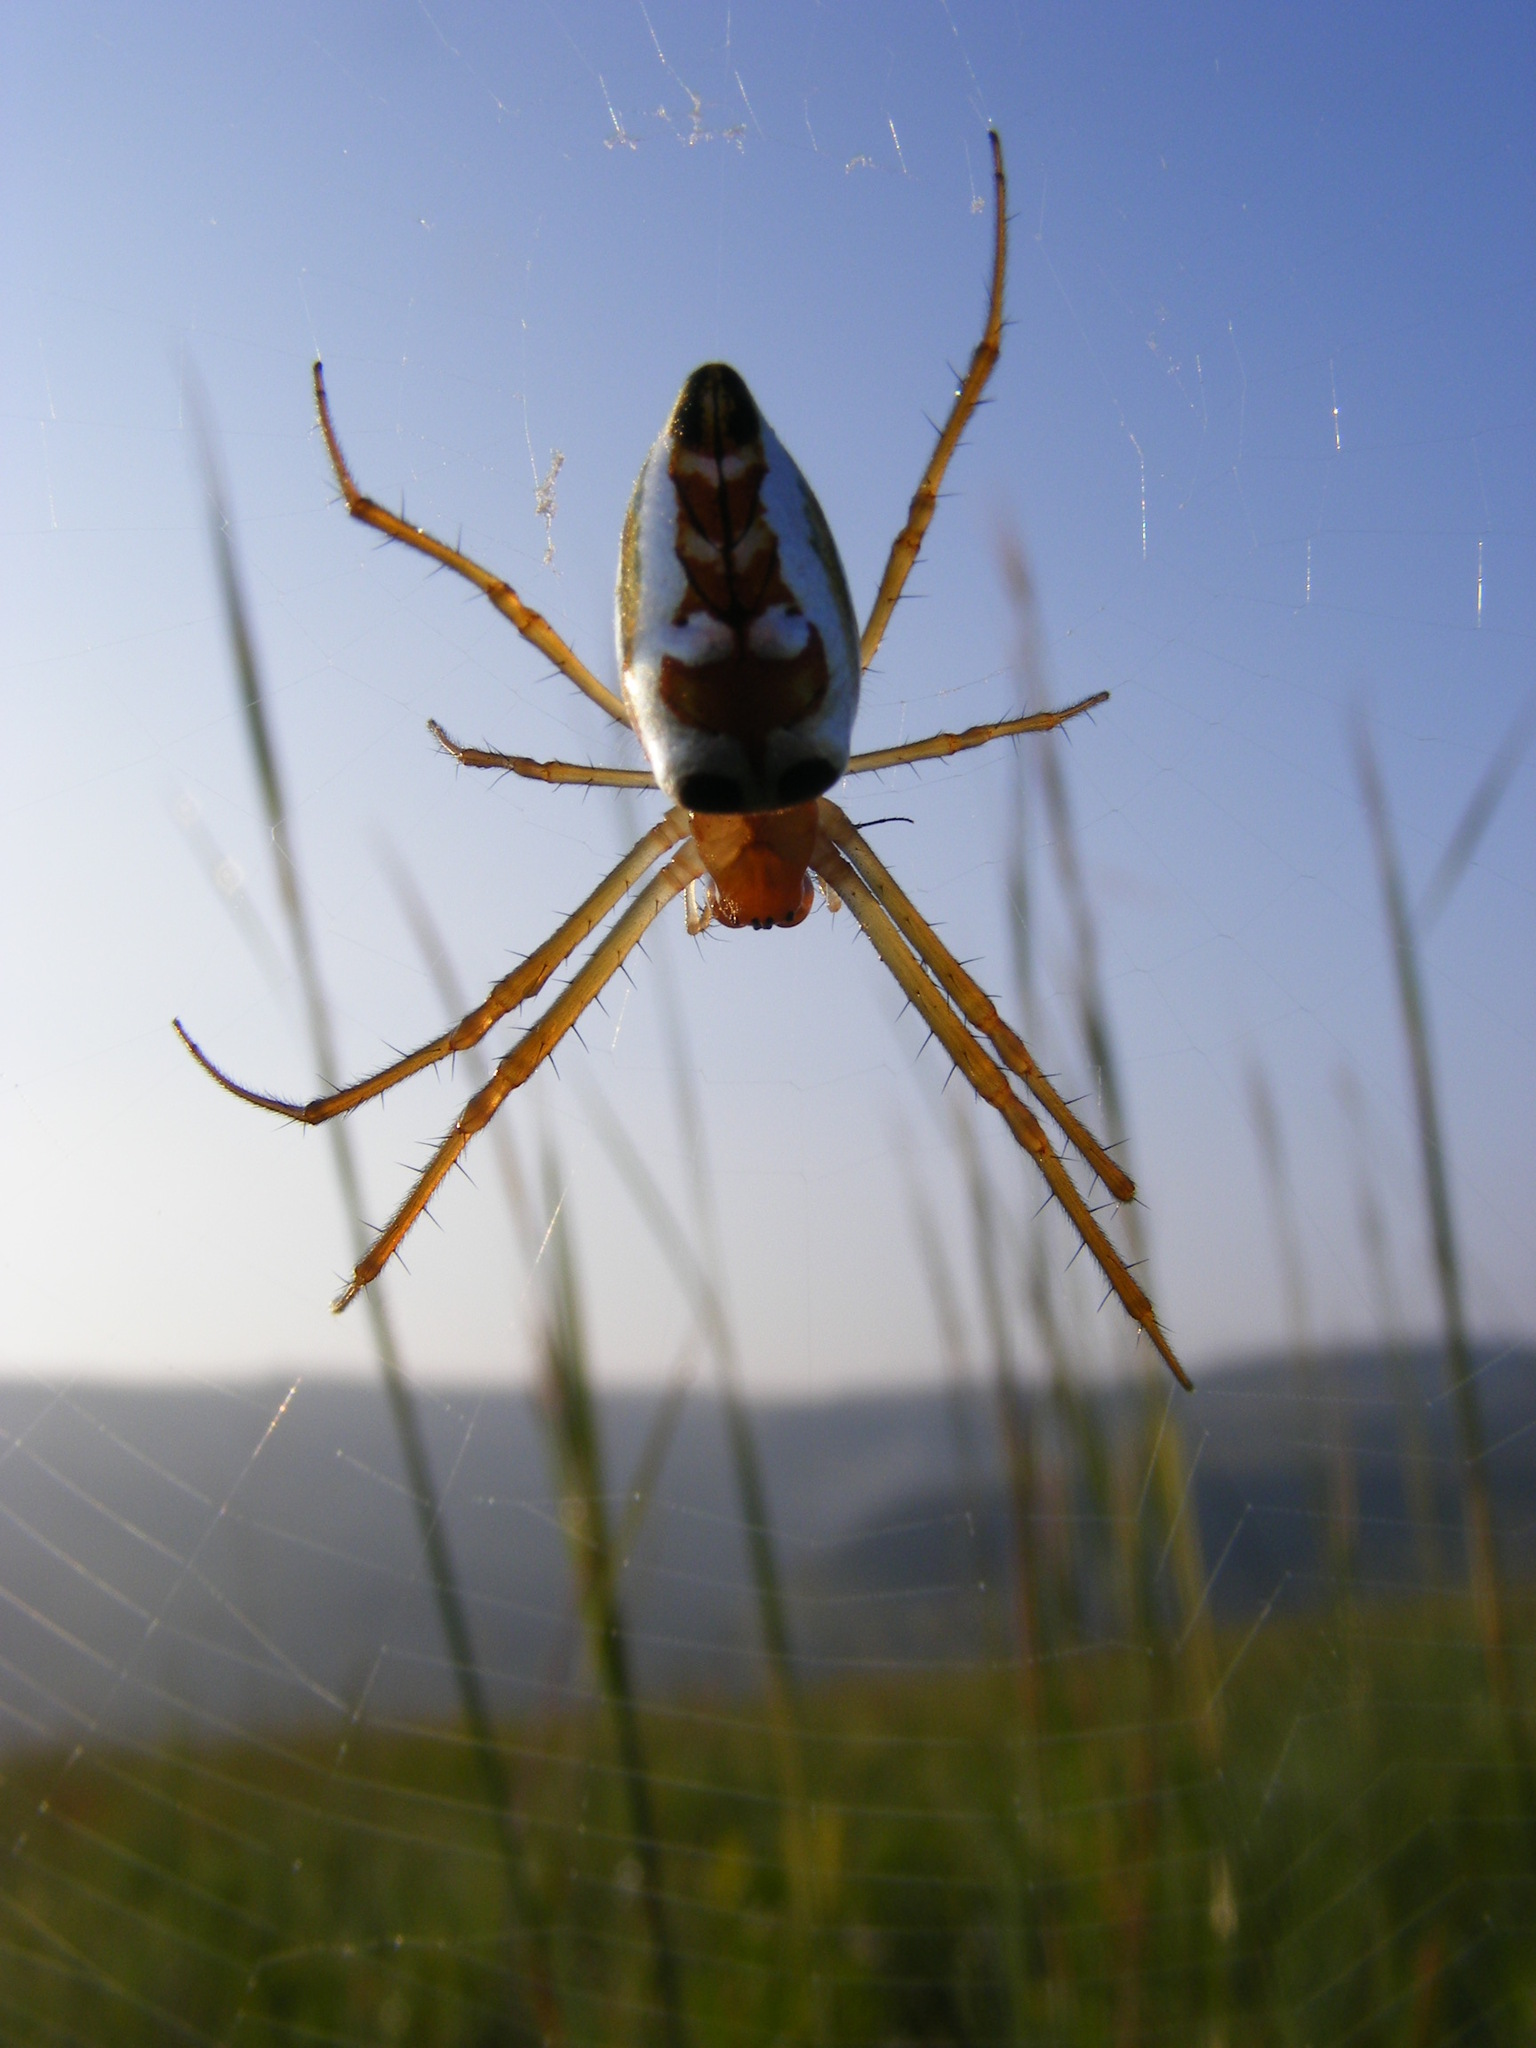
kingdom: Animalia
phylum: Arthropoda
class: Arachnida
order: Araneae
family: Tetragnathidae
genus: Leucauge
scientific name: Leucauge festiva
